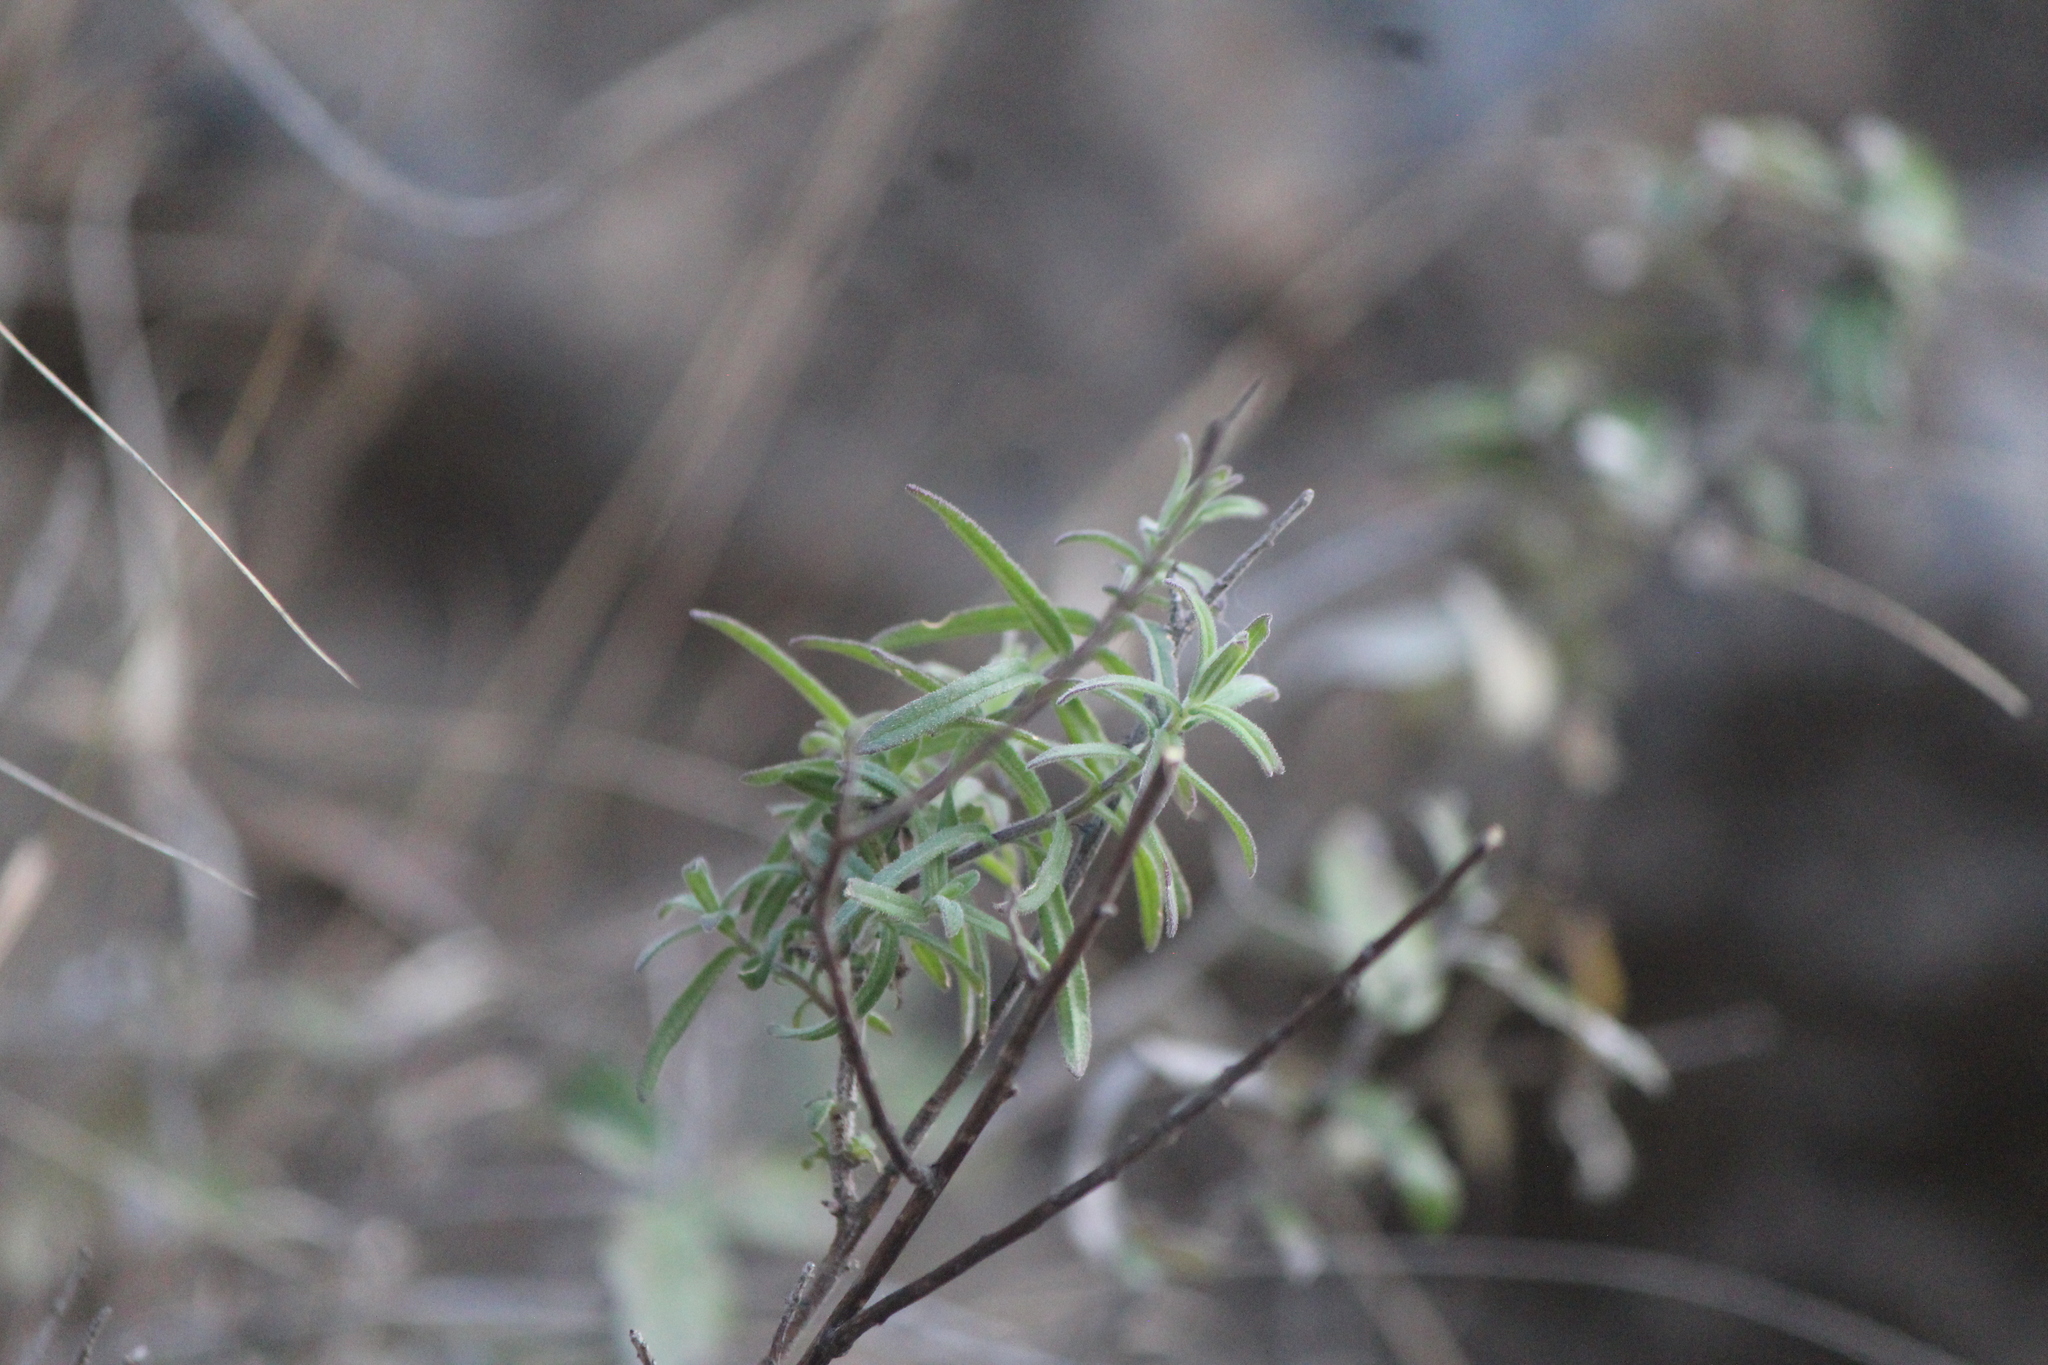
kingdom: Plantae
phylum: Tracheophyta
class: Magnoliopsida
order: Lamiales
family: Orobanchaceae
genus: Castilleja
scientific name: Castilleja tenuiflora
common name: Santa catalina indian paintbrush
